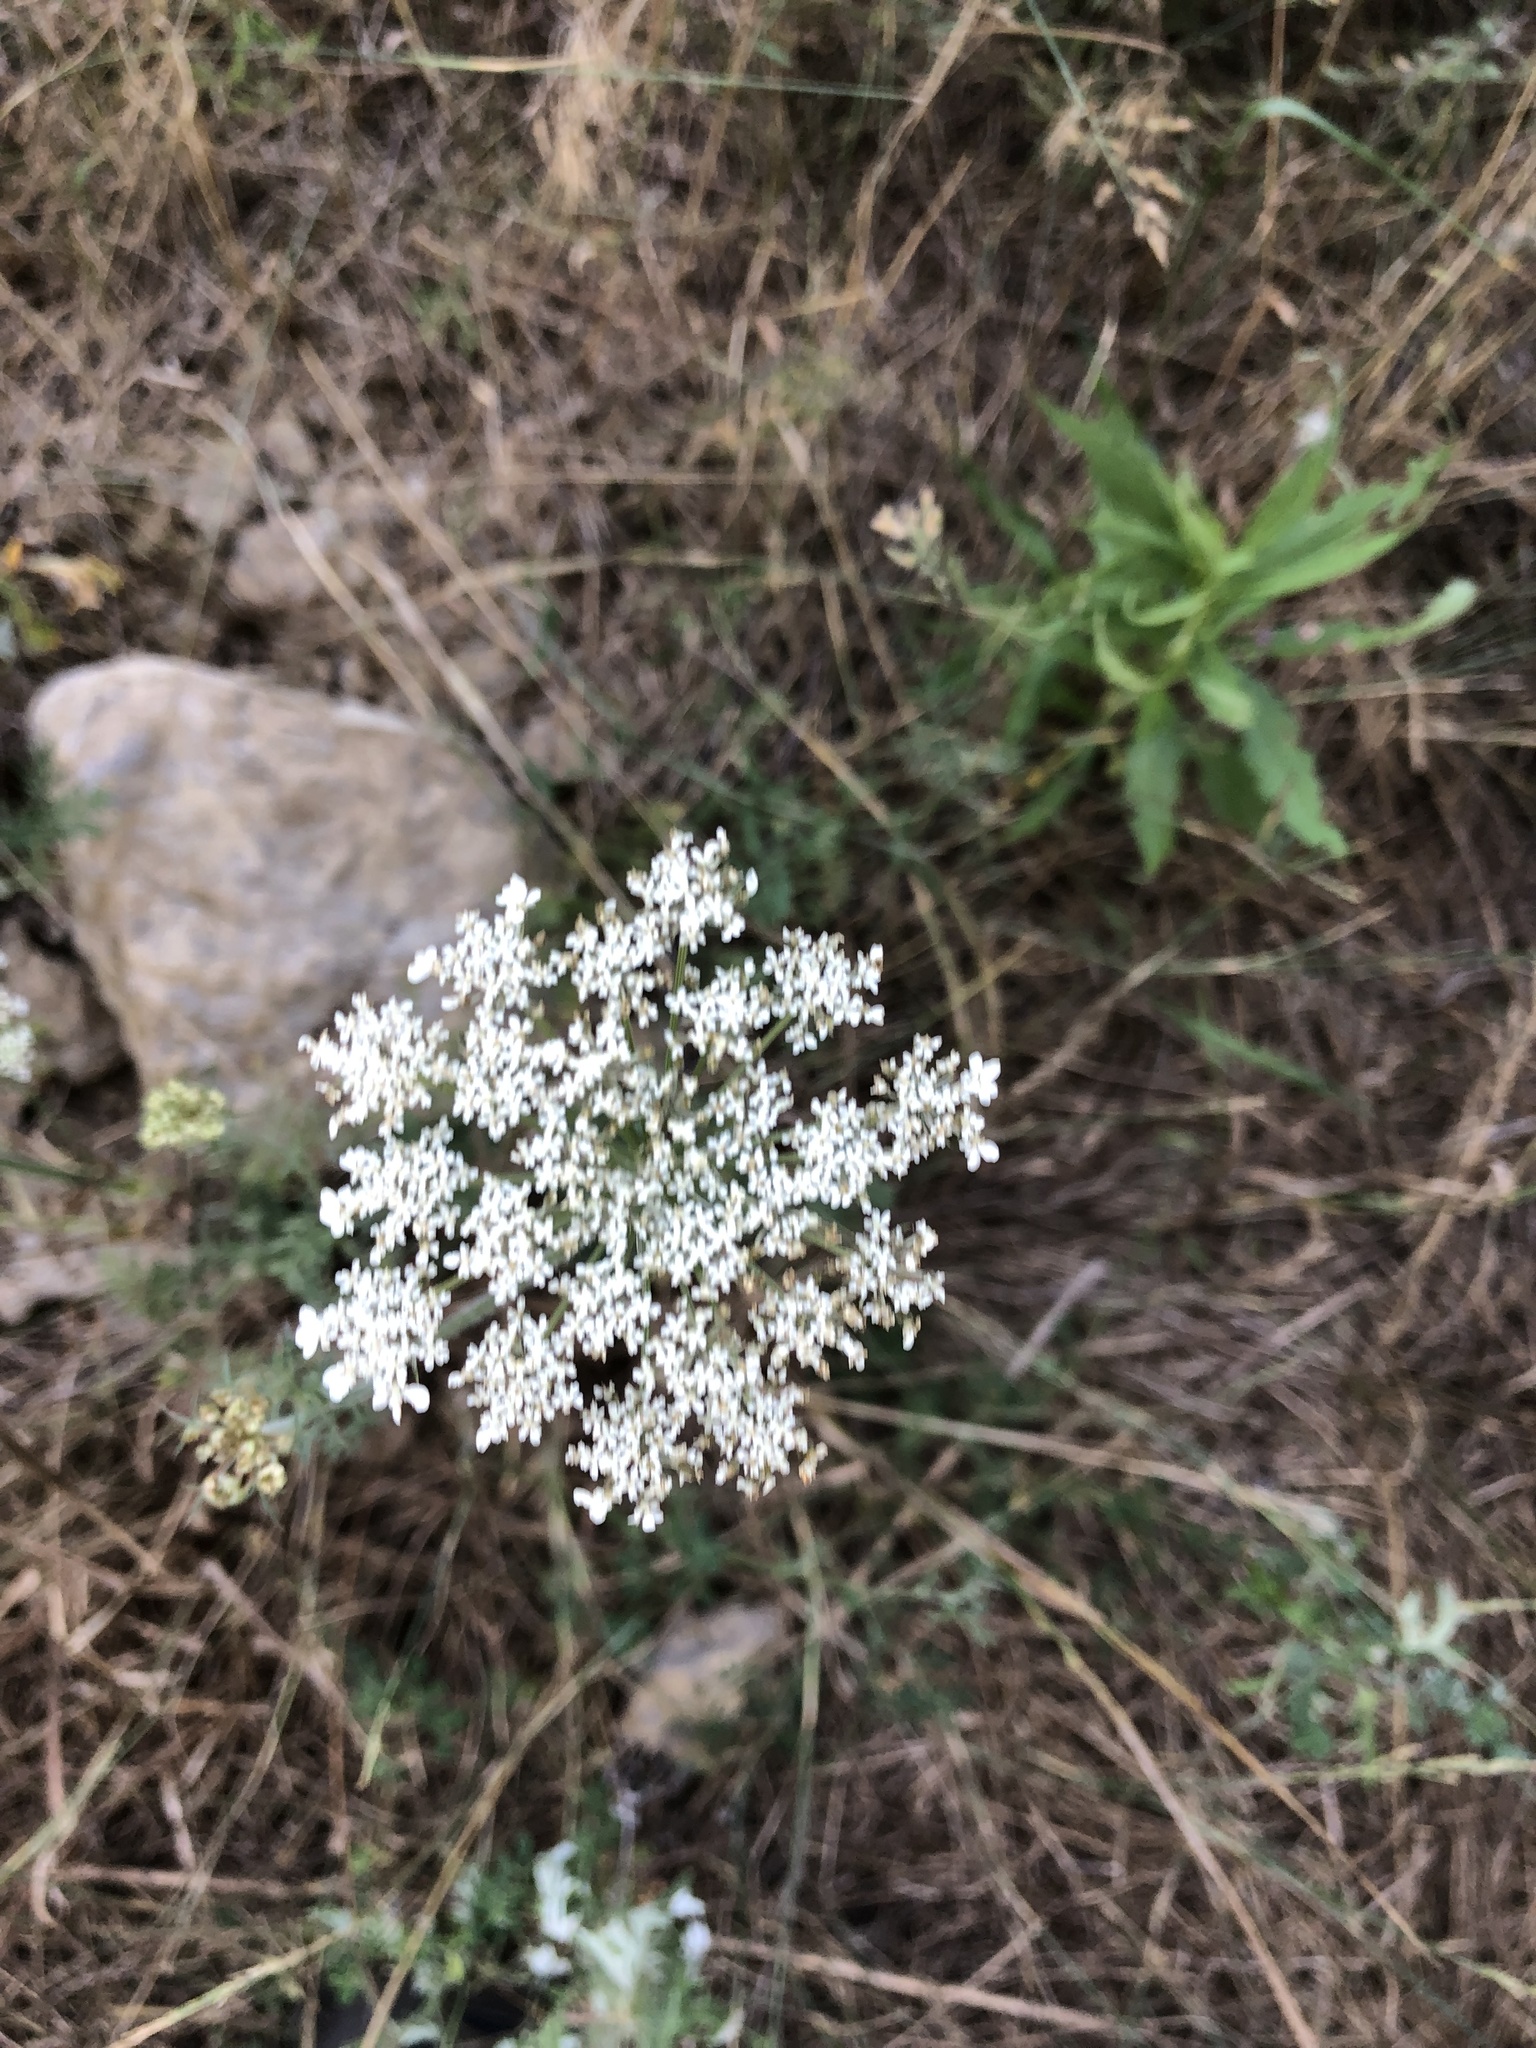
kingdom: Plantae
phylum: Tracheophyta
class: Magnoliopsida
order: Apiales
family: Apiaceae
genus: Daucus
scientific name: Daucus carota
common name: Wild carrot
